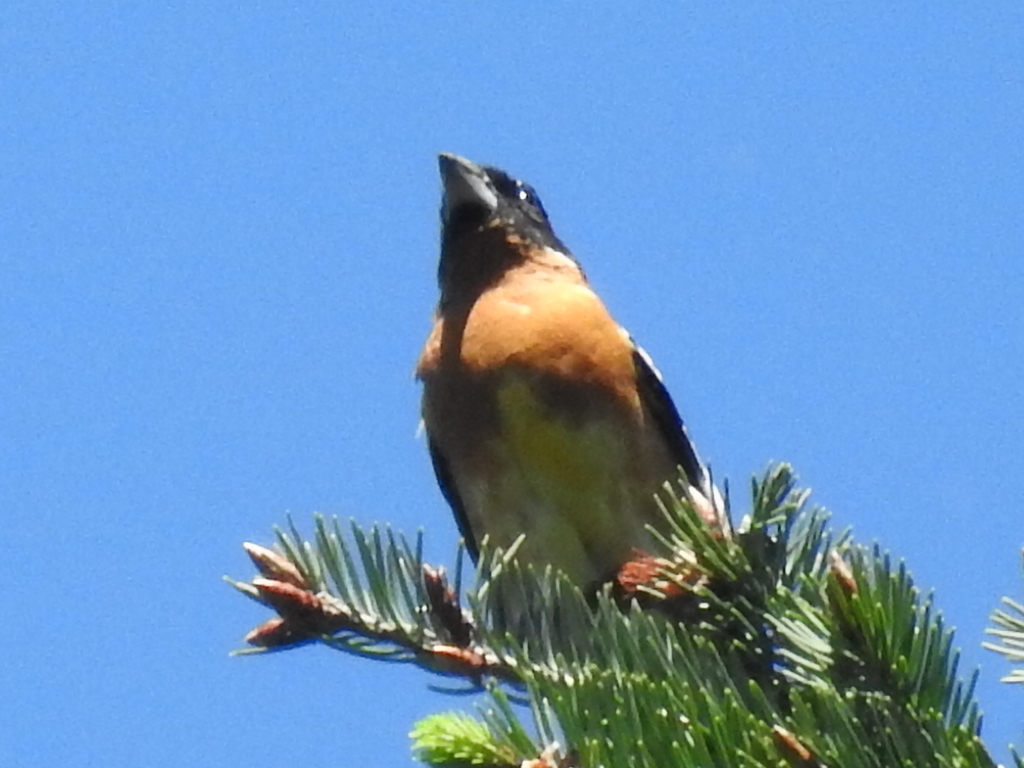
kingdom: Animalia
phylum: Chordata
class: Aves
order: Passeriformes
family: Cardinalidae
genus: Pheucticus
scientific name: Pheucticus melanocephalus
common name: Black-headed grosbeak
